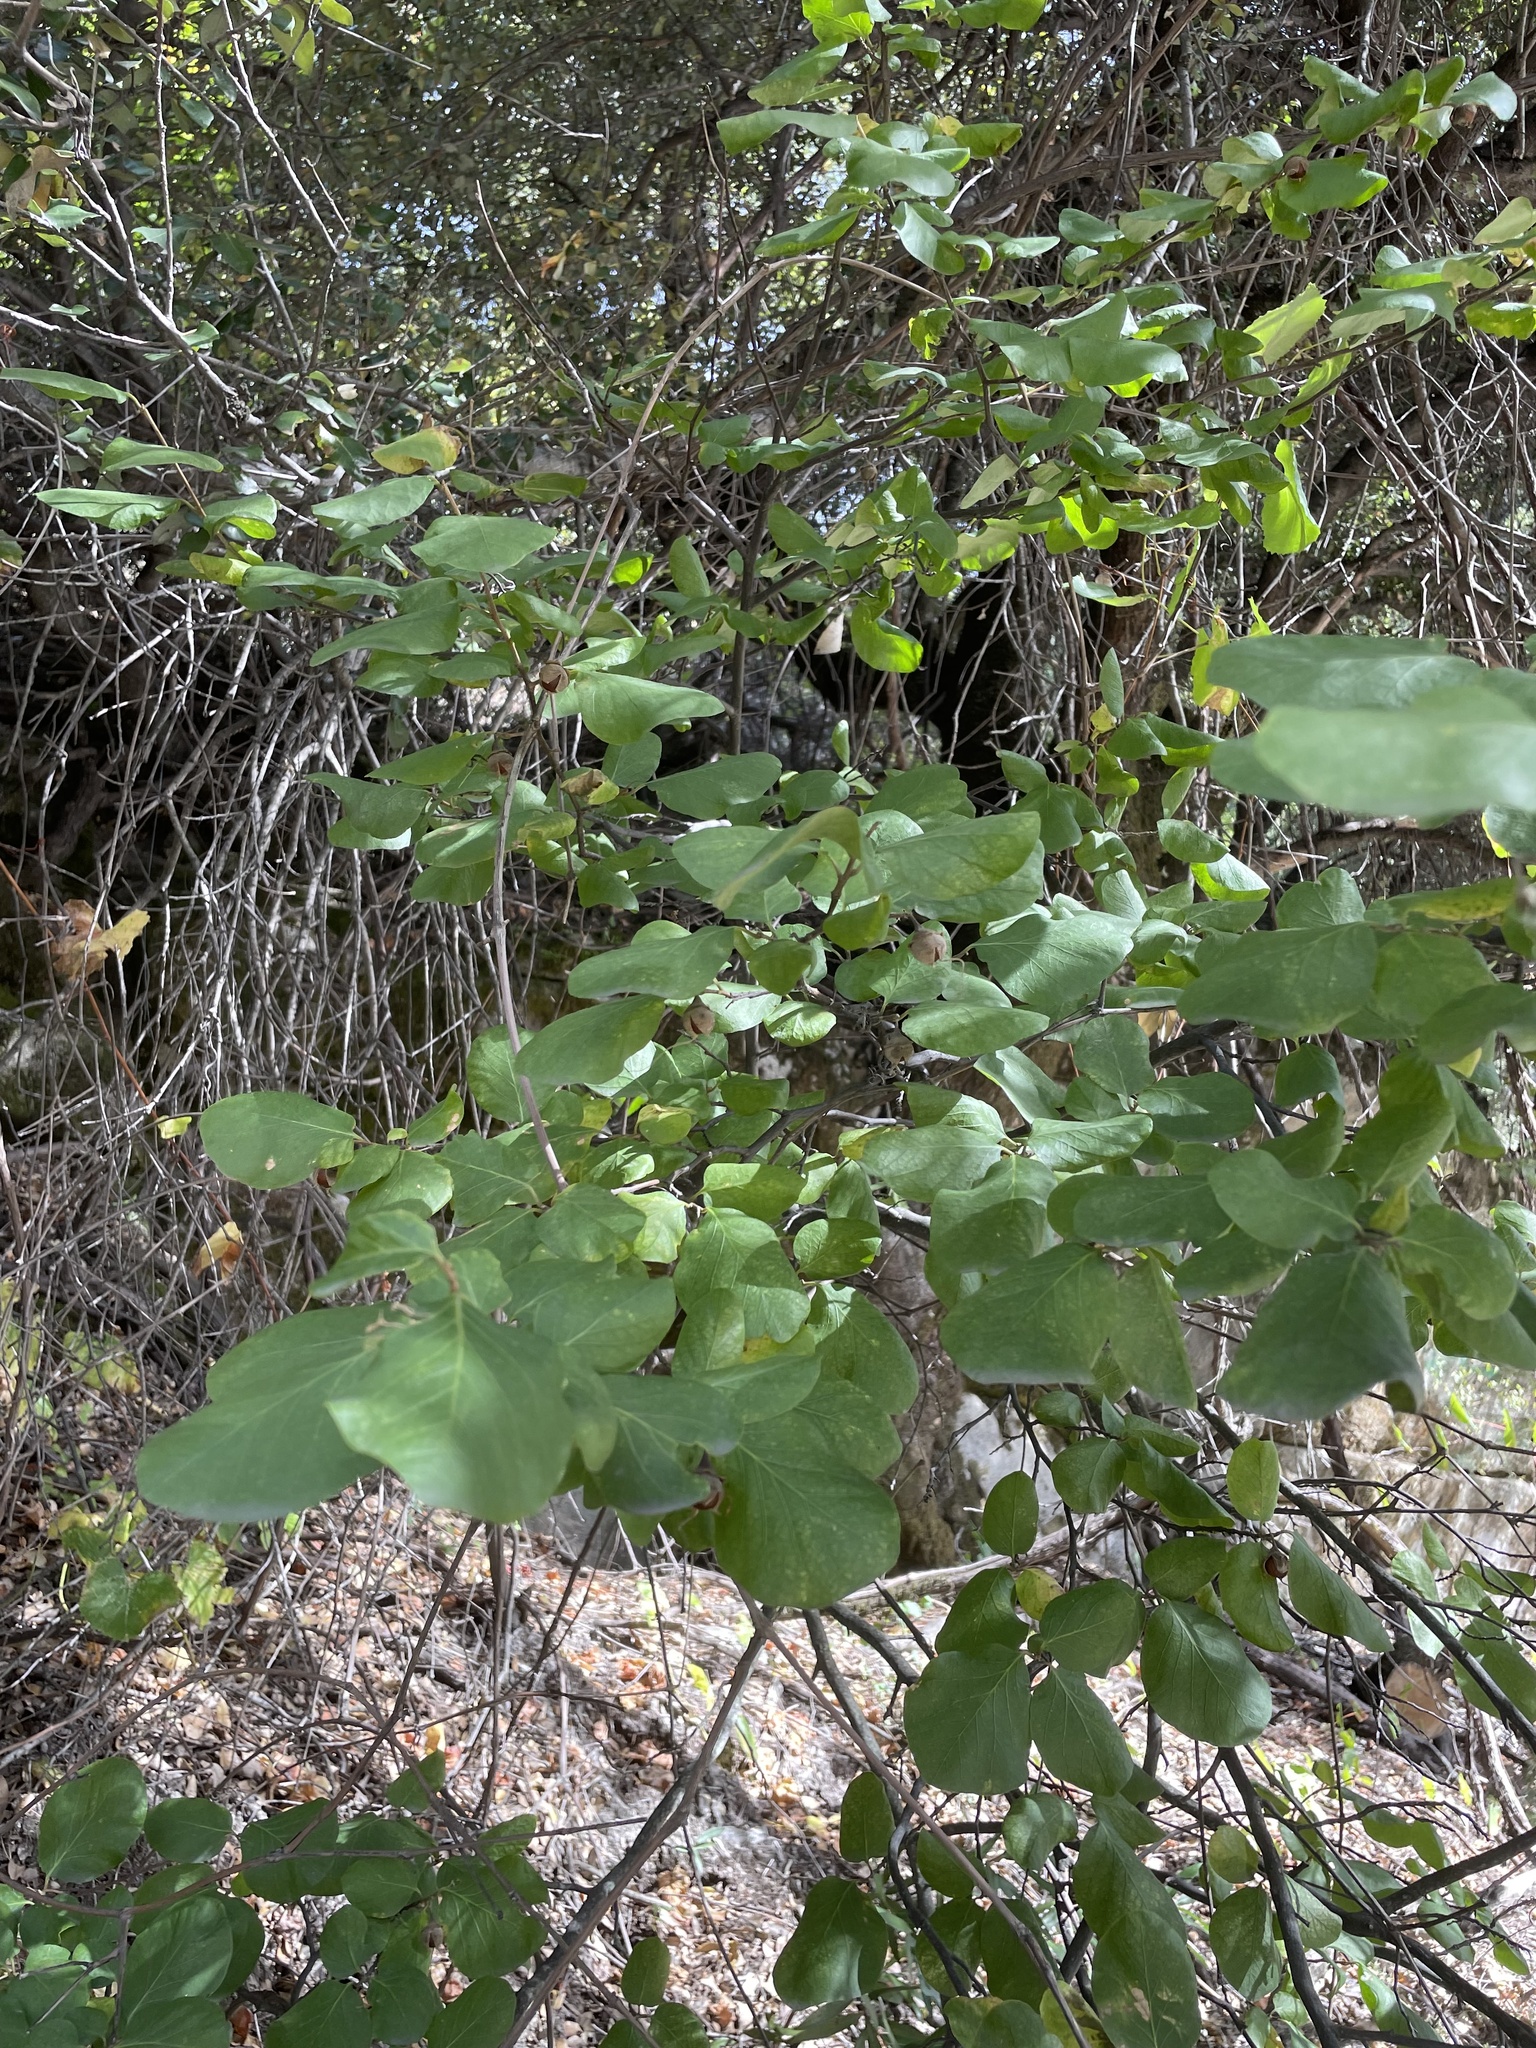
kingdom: Plantae
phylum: Tracheophyta
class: Magnoliopsida
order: Ericales
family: Styracaceae
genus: Styrax
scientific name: Styrax redivivus
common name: California styrax
